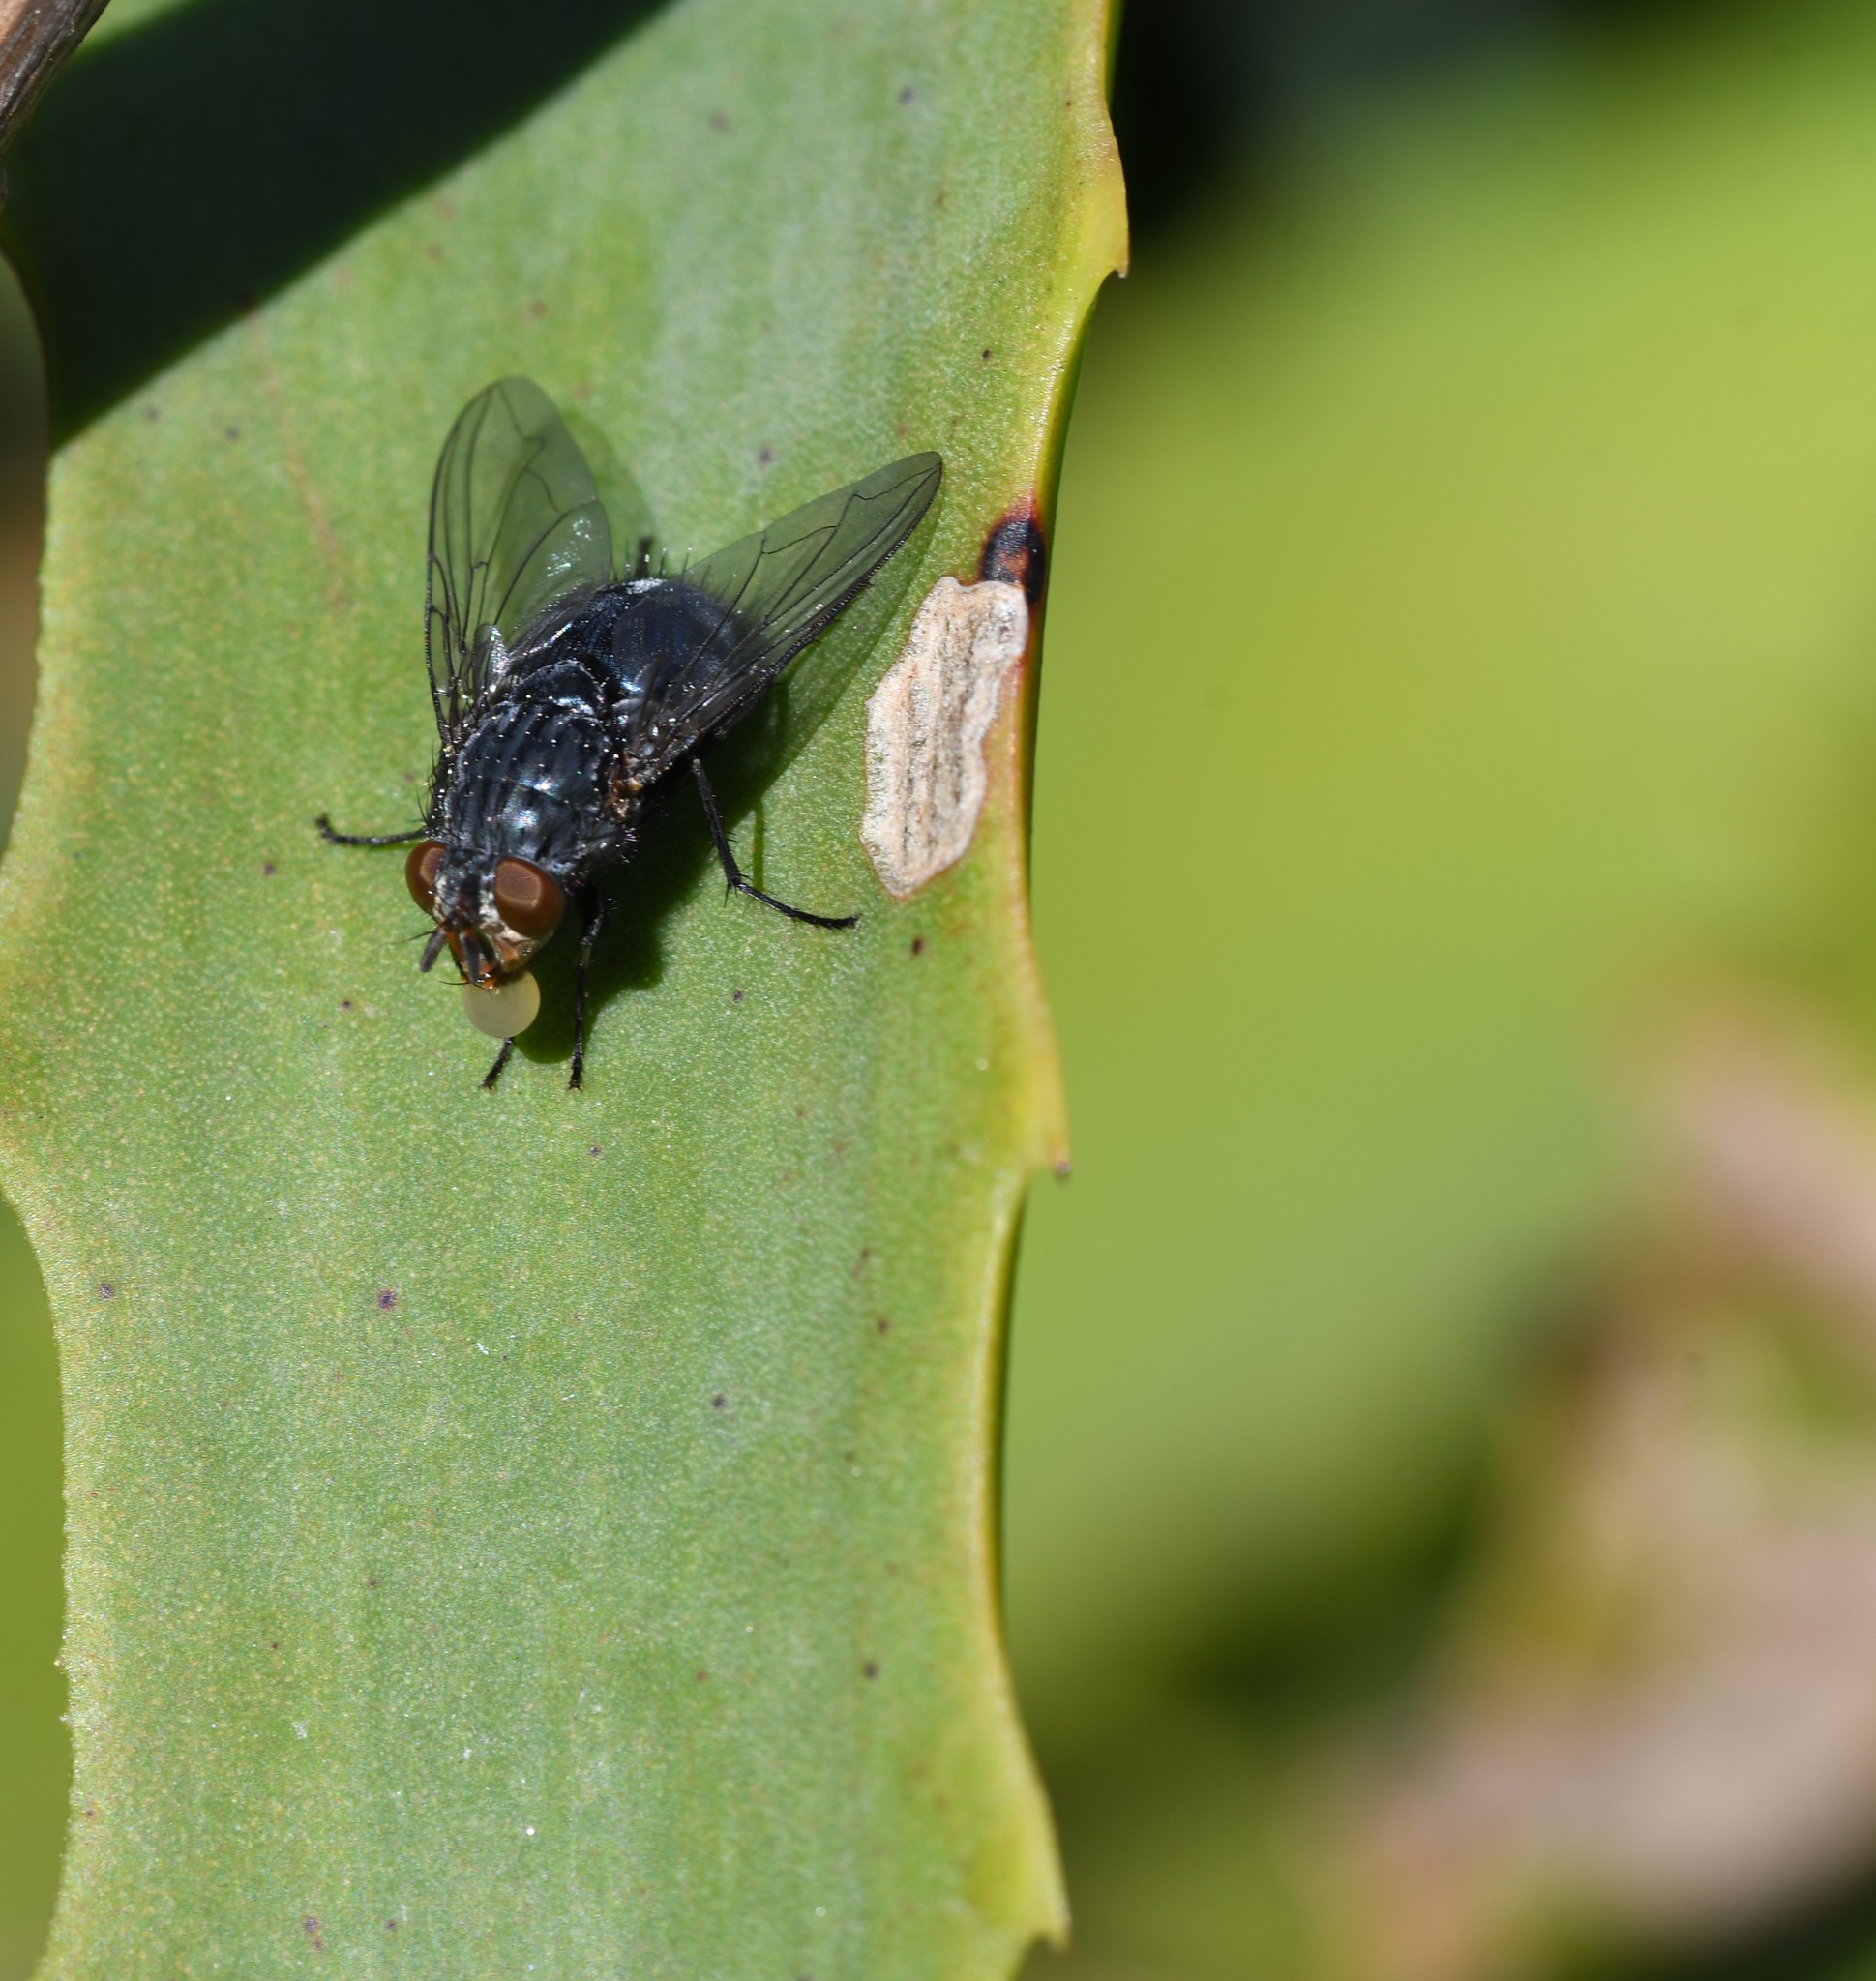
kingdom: Animalia
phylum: Arthropoda
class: Insecta
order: Diptera
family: Calliphoridae
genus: Calliphora
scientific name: Calliphora vicina
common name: Common blow flie
